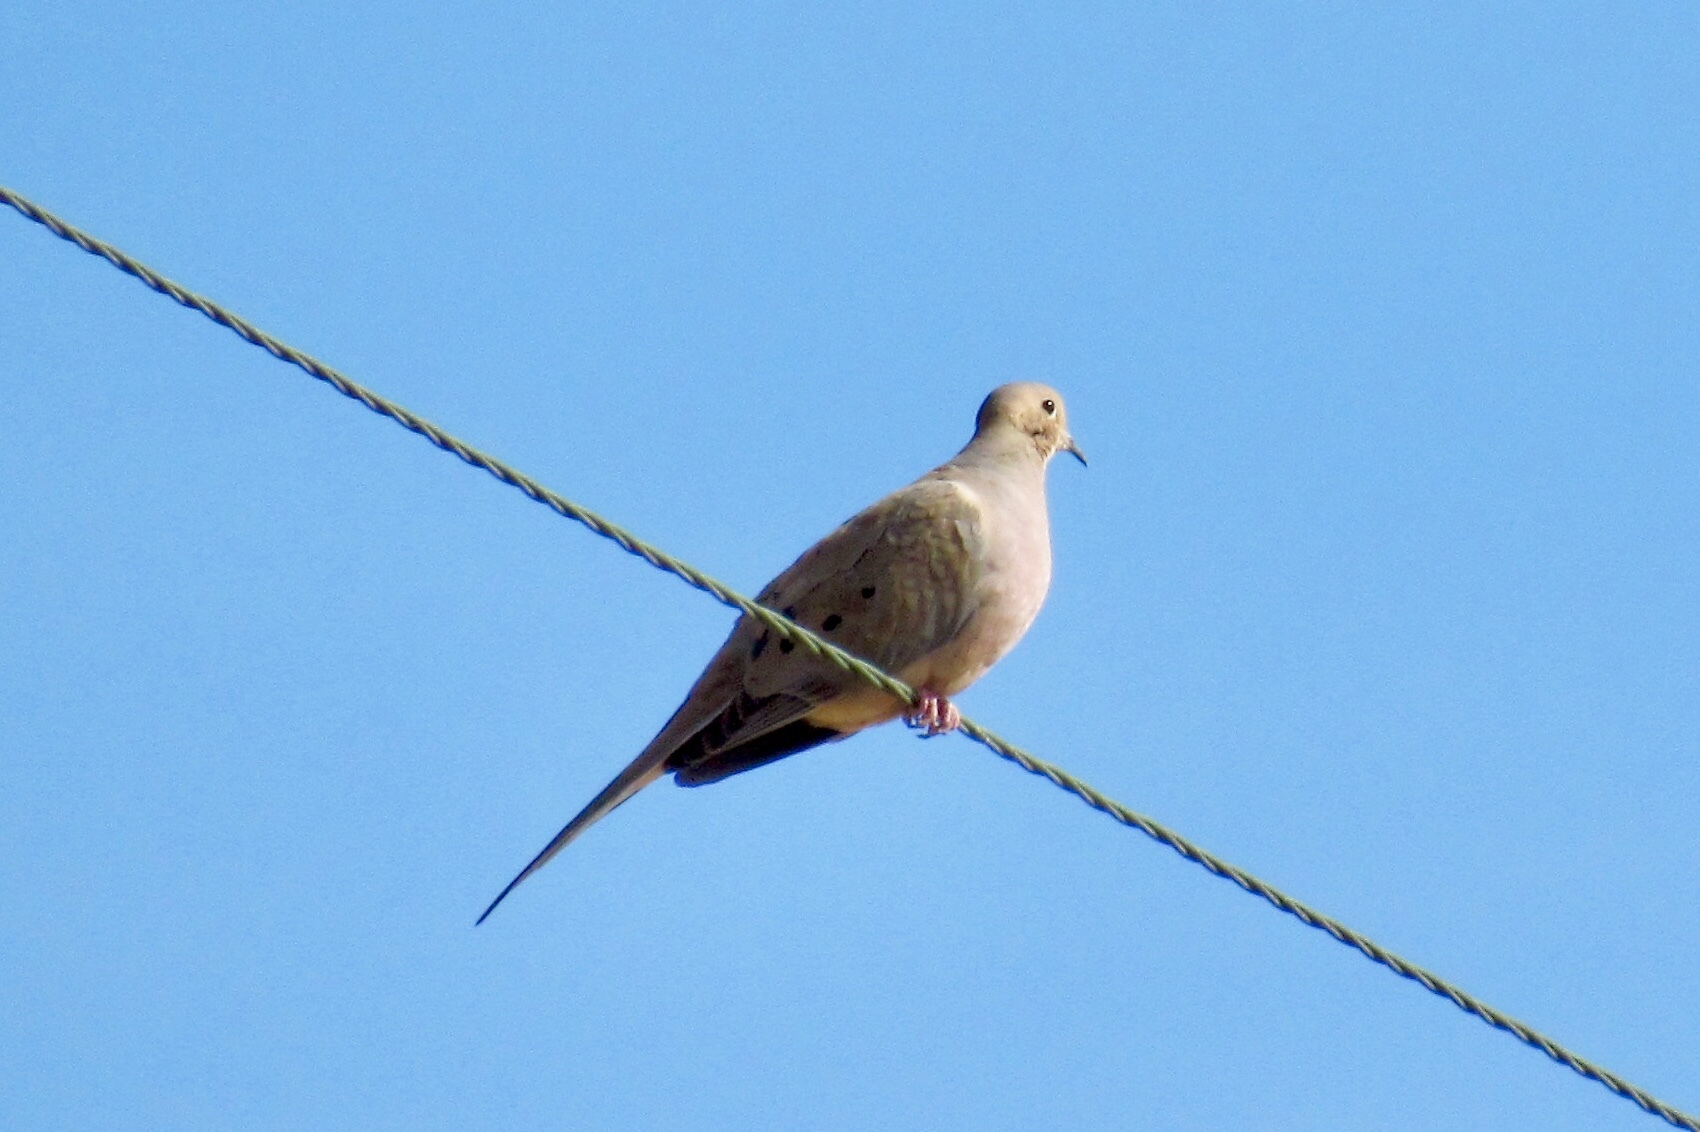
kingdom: Animalia
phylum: Chordata
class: Aves
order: Columbiformes
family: Columbidae
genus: Zenaida
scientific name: Zenaida macroura
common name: Mourning dove
